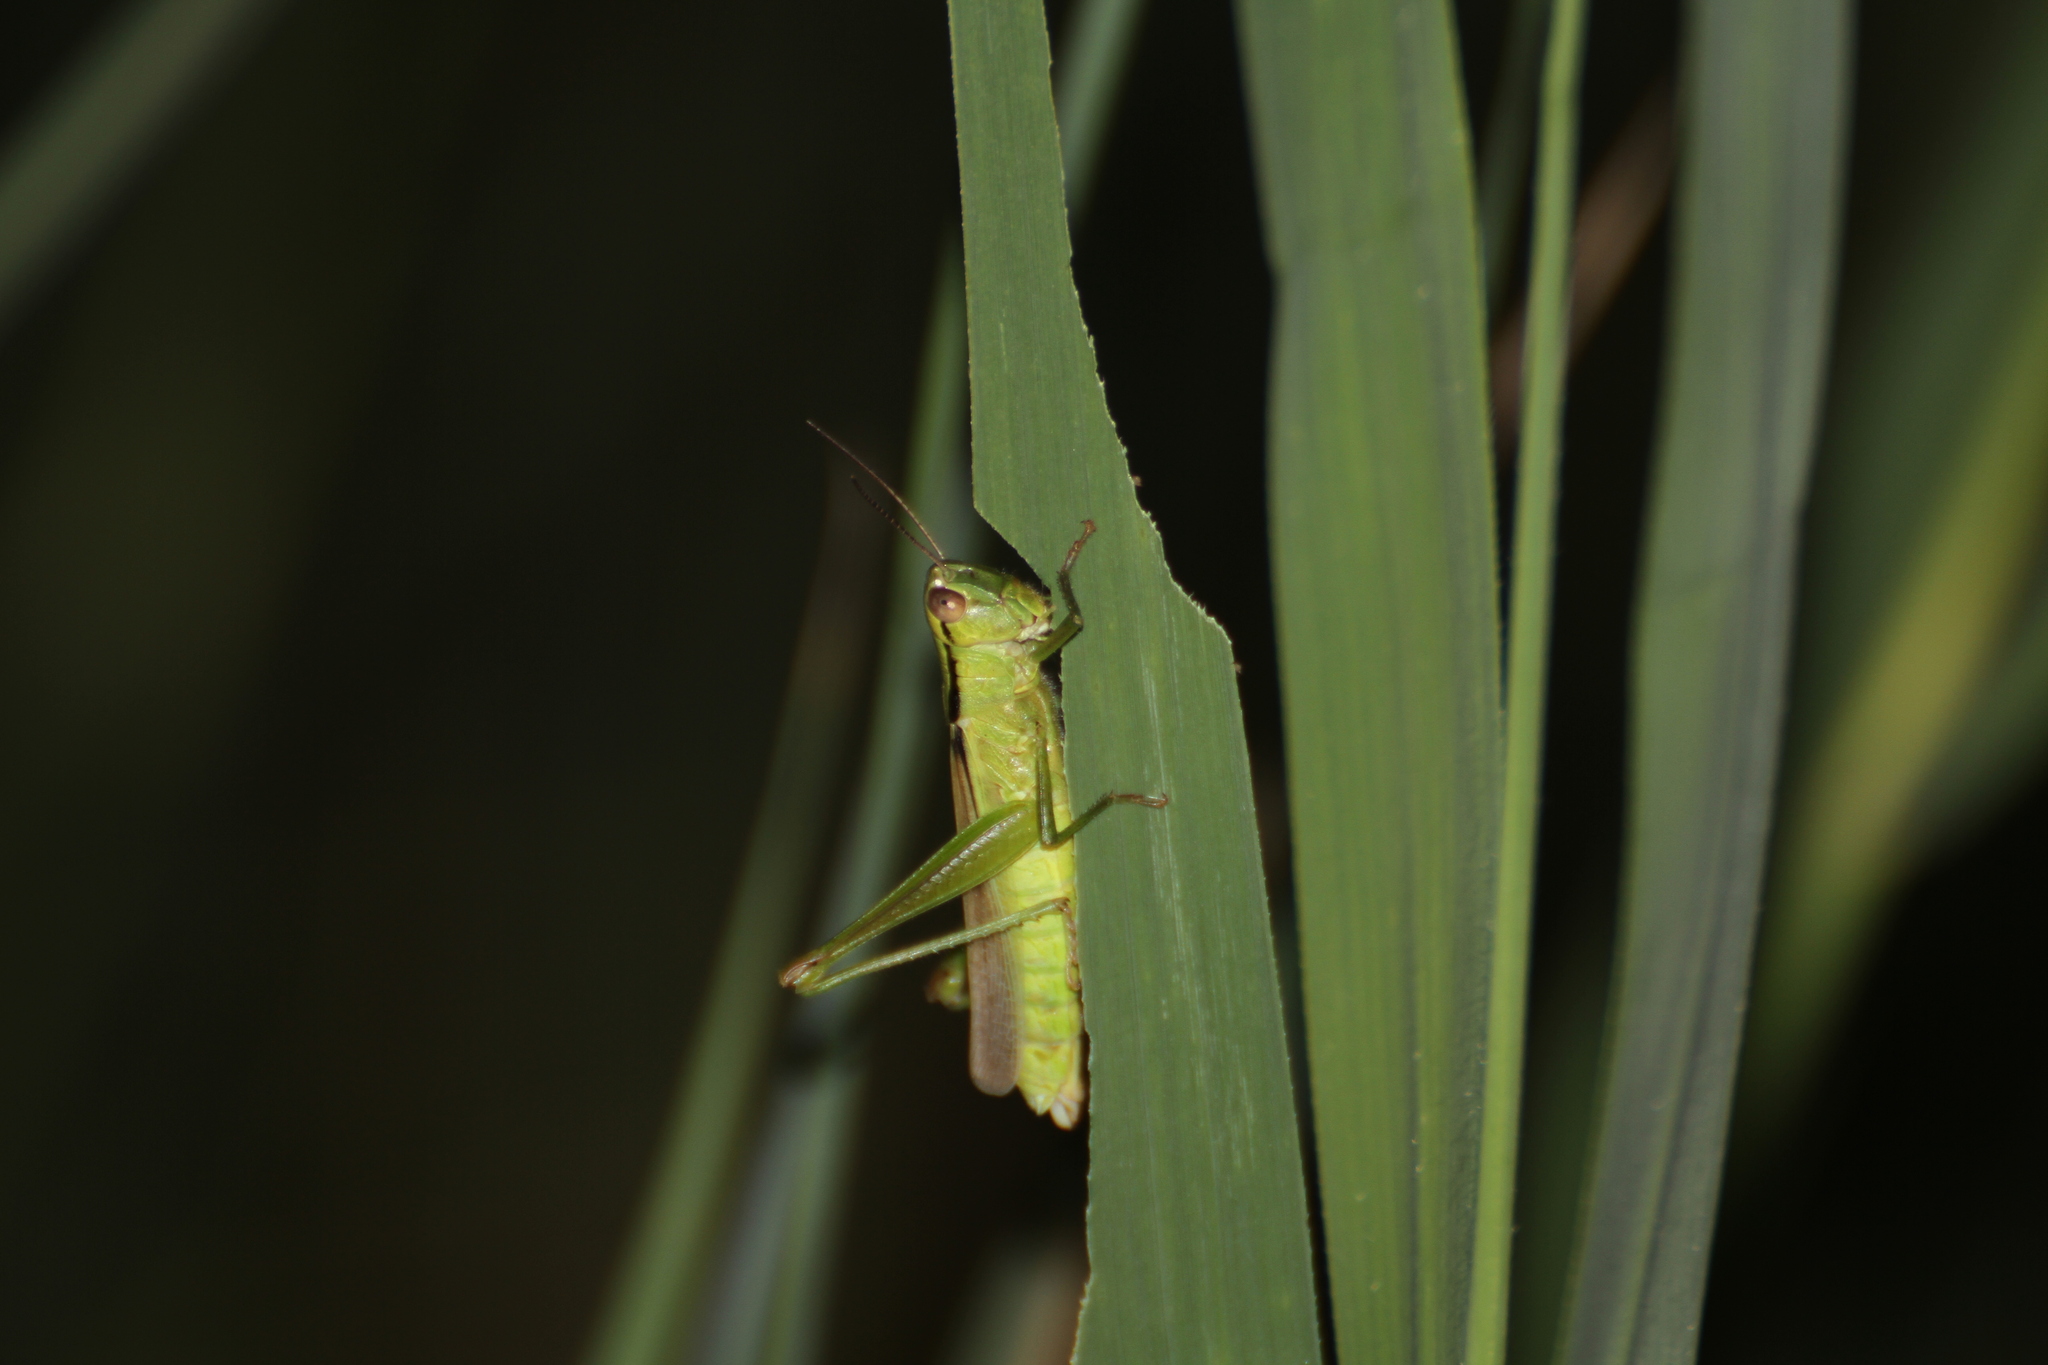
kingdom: Animalia
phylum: Arthropoda
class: Insecta
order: Orthoptera
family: Acrididae
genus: Mecostethus
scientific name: Mecostethus parapleurus
